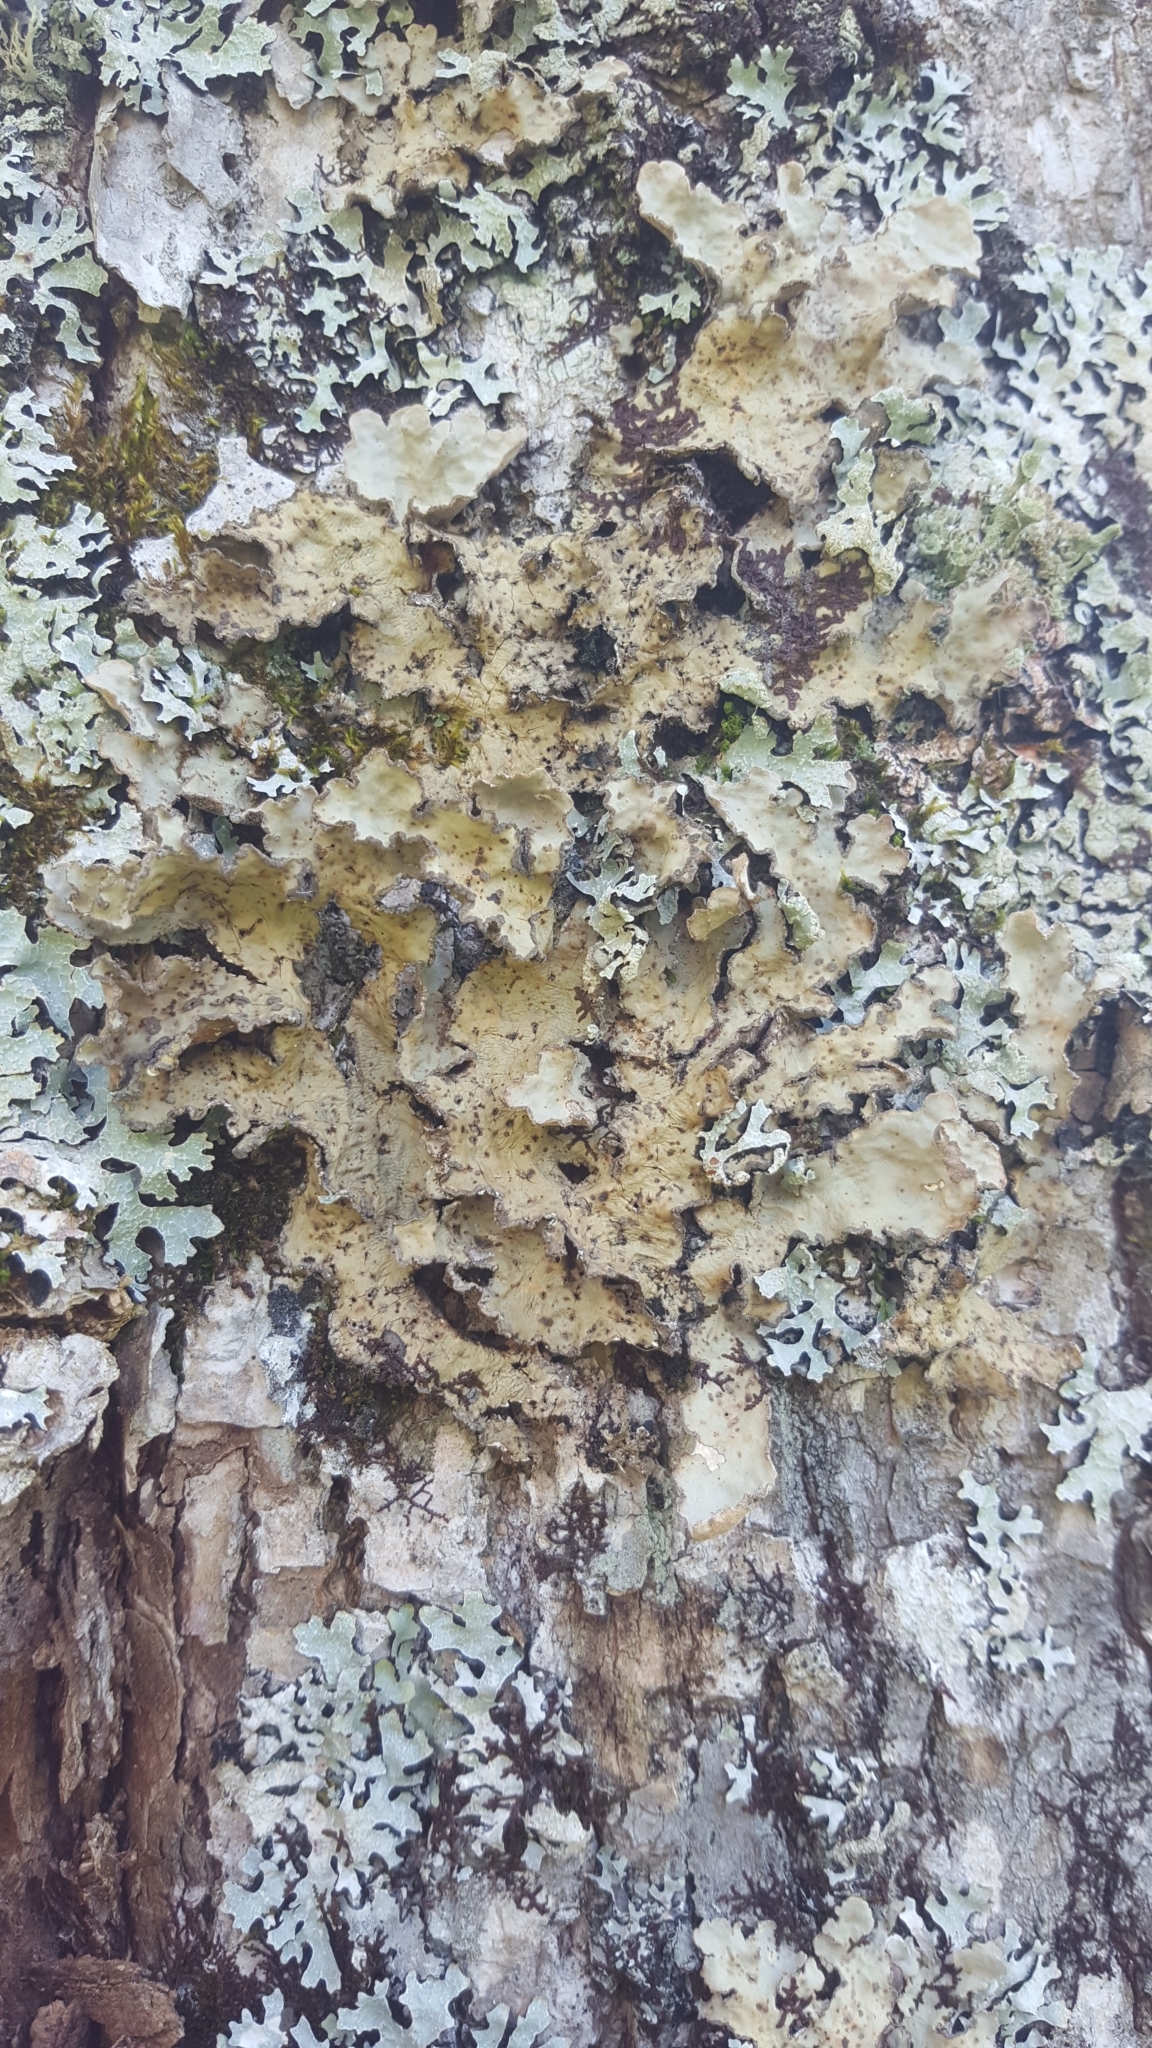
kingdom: Fungi
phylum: Ascomycota
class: Lecanoromycetes
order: Peltigerales
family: Lobariaceae
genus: Lobarina
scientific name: Lobarina scrobiculata
